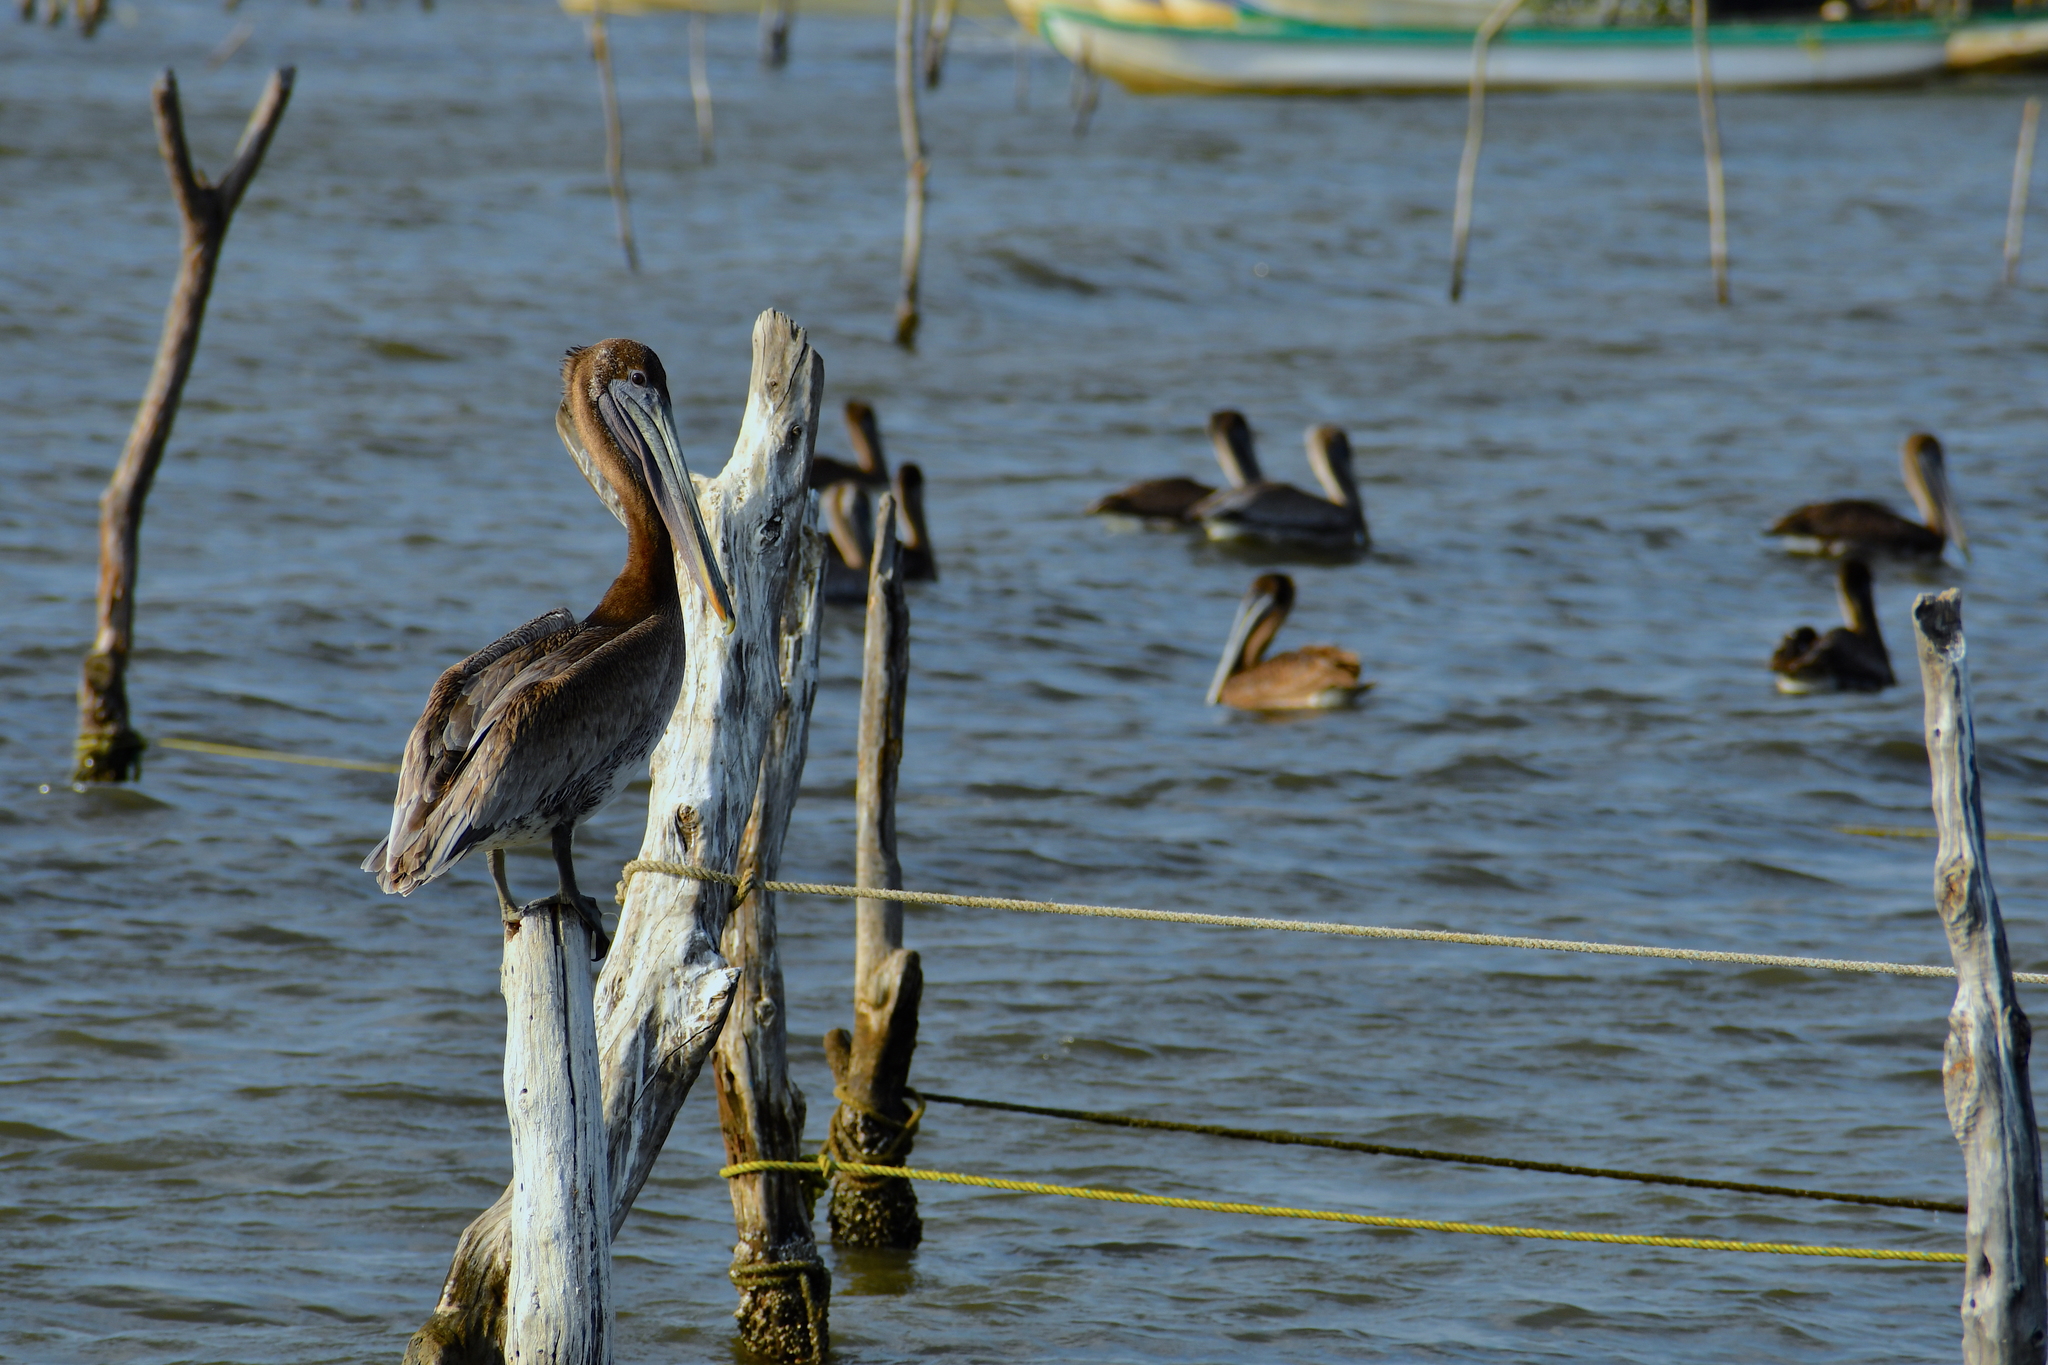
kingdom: Animalia
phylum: Chordata
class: Aves
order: Pelecaniformes
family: Pelecanidae
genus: Pelecanus
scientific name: Pelecanus occidentalis
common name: Brown pelican
